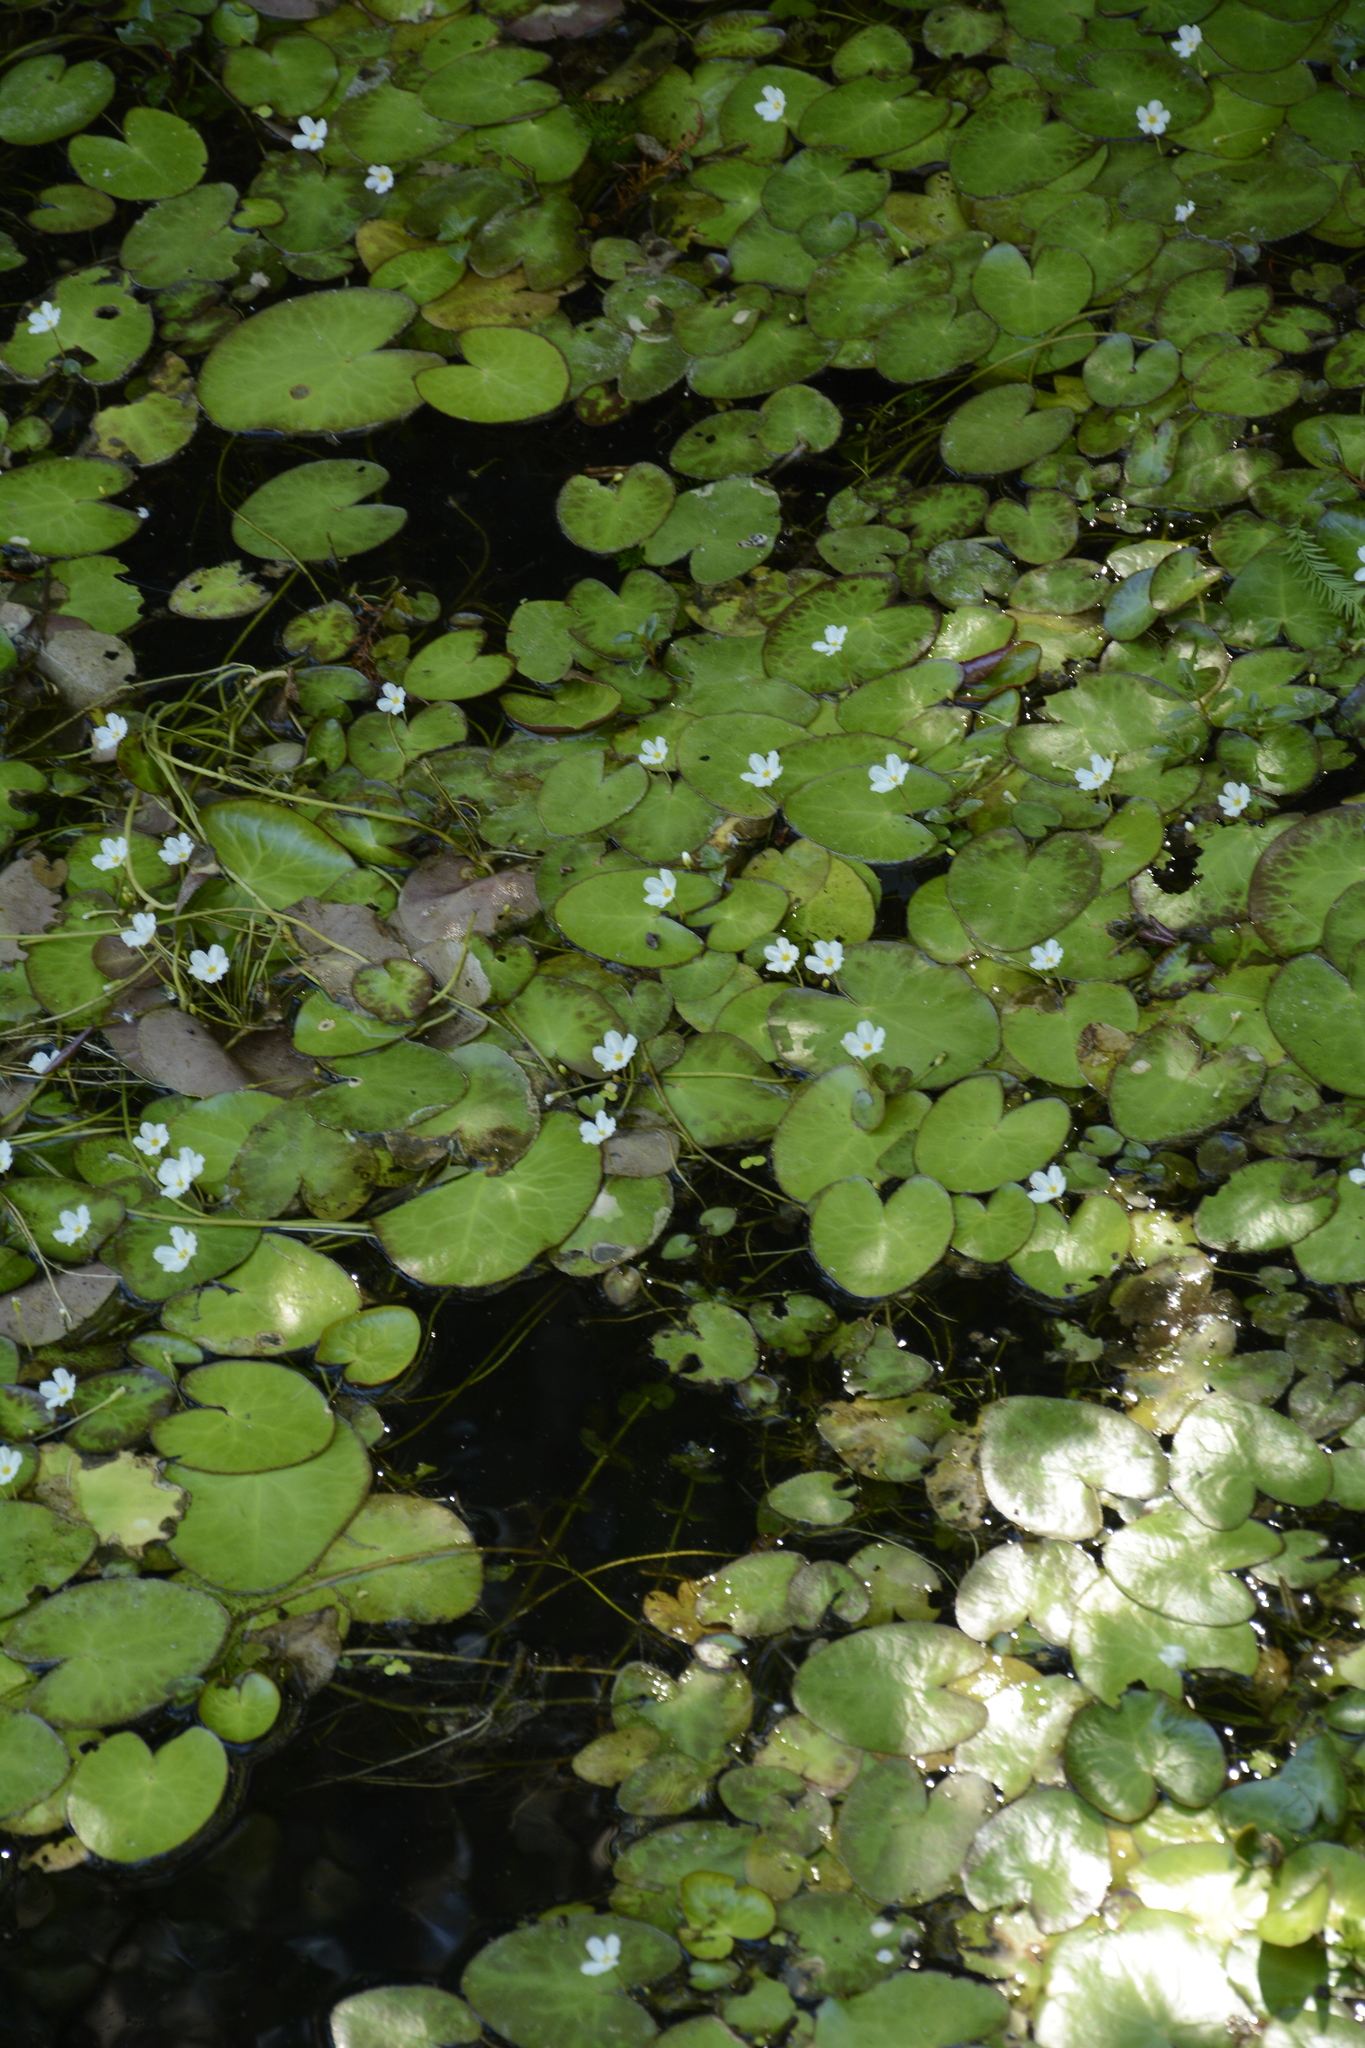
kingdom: Plantae
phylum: Tracheophyta
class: Magnoliopsida
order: Asterales
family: Menyanthaceae
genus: Nymphoides
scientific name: Nymphoides hydrophylla
